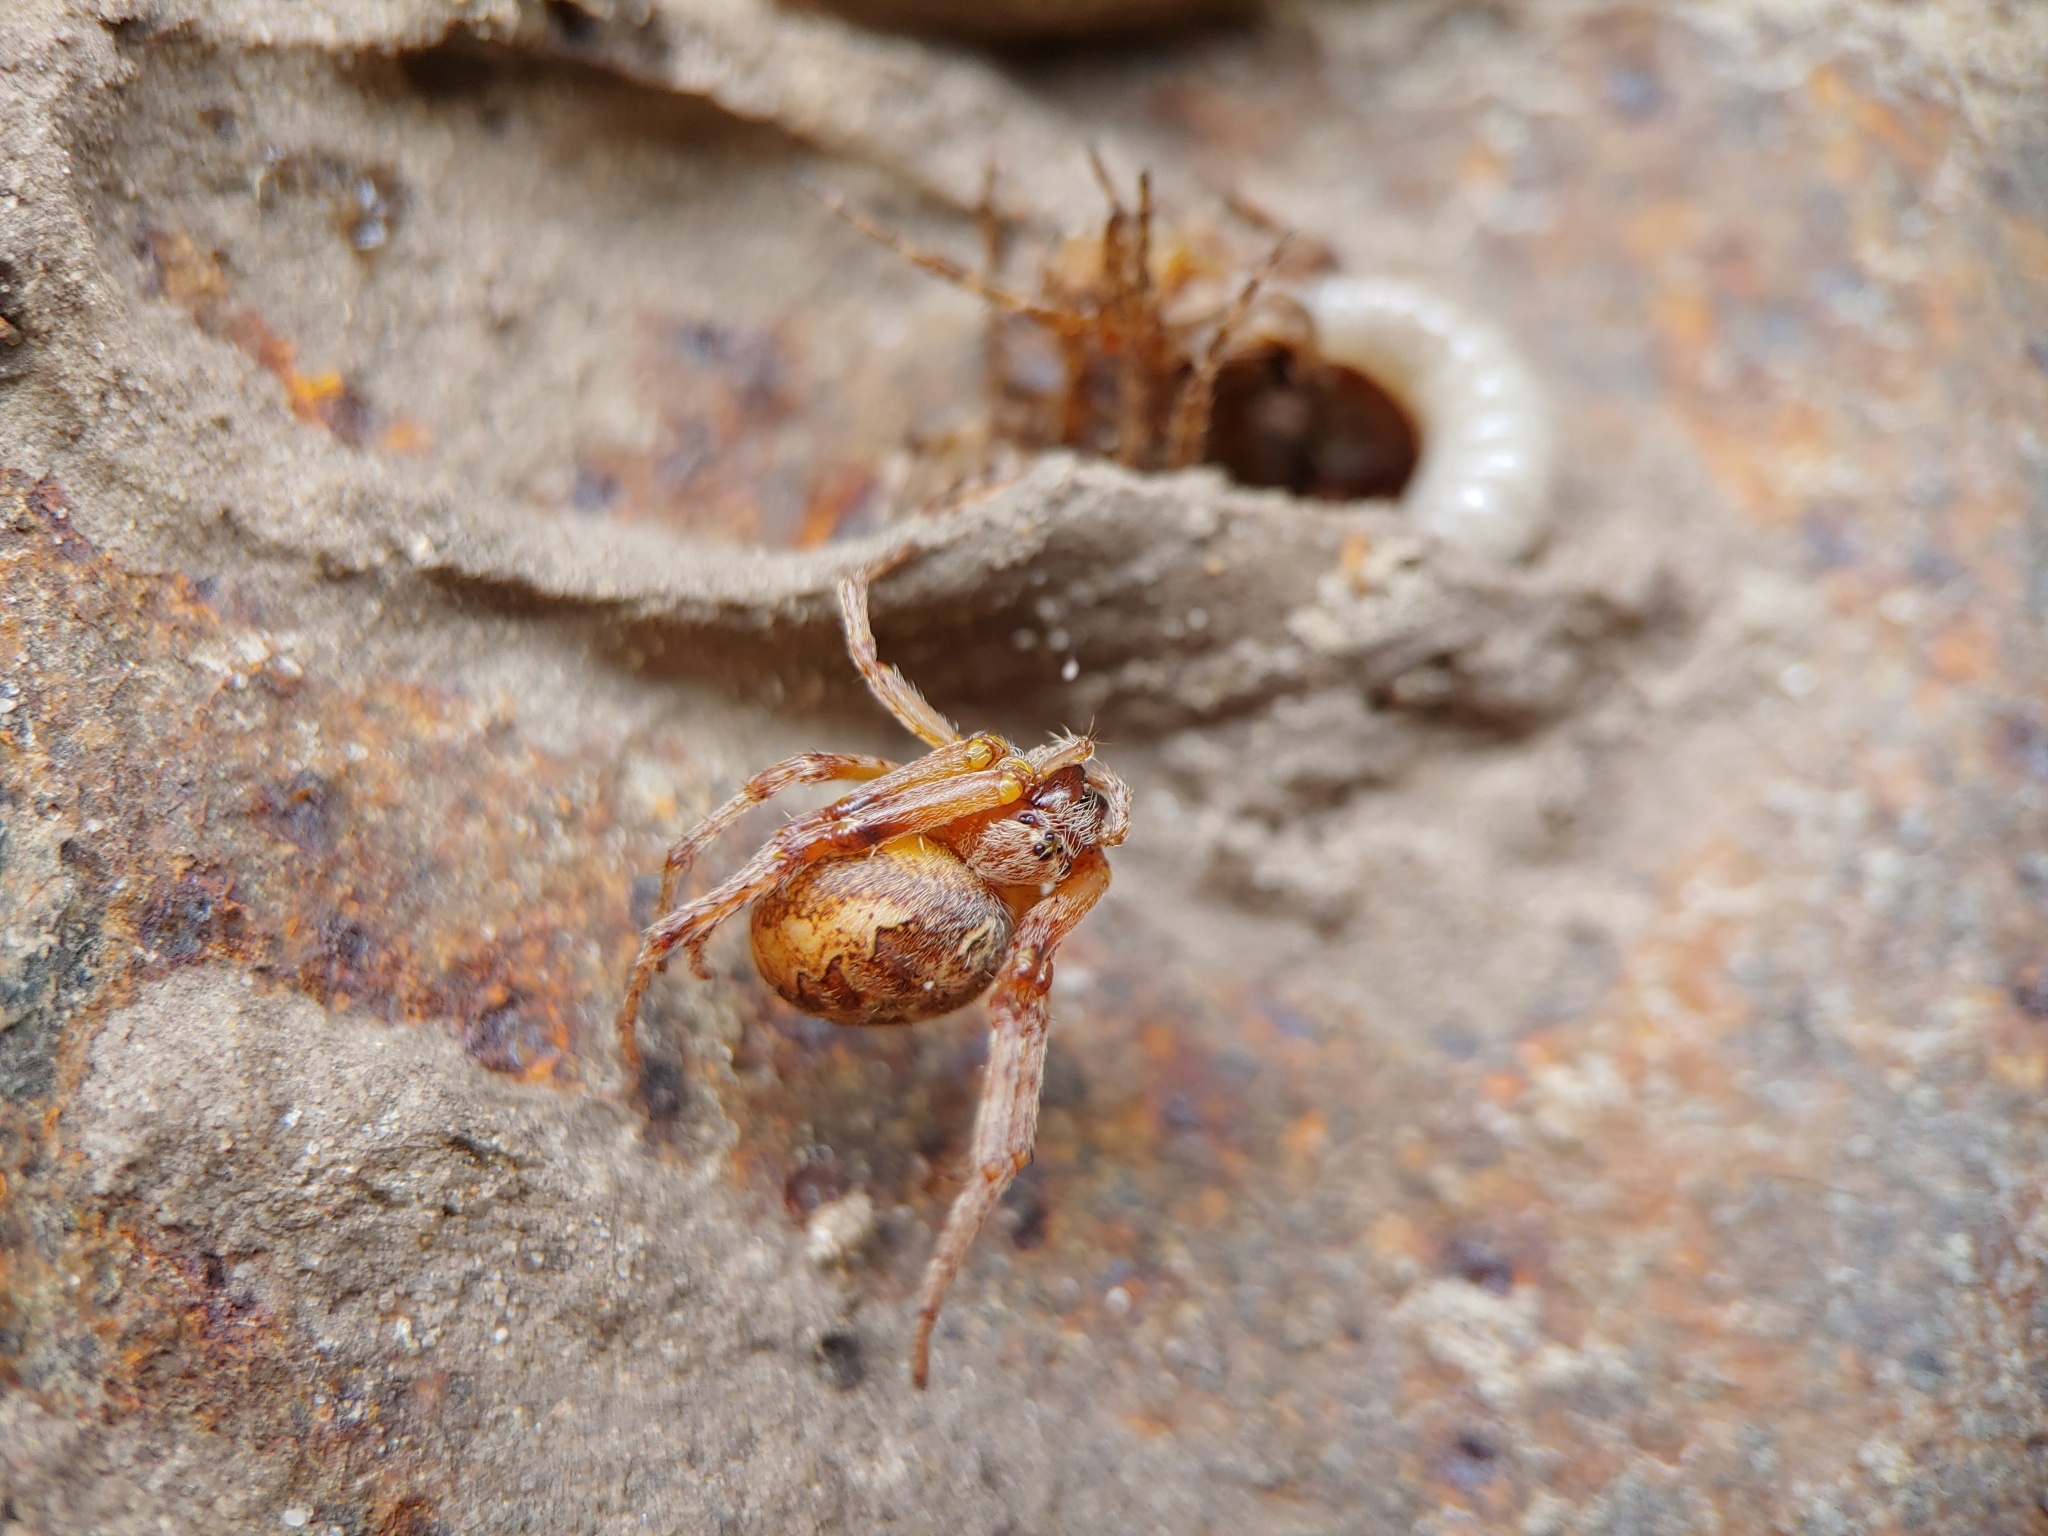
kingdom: Animalia
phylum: Arthropoda
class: Insecta
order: Hymenoptera
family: Sphecidae
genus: Sceliphron
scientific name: Sceliphron
